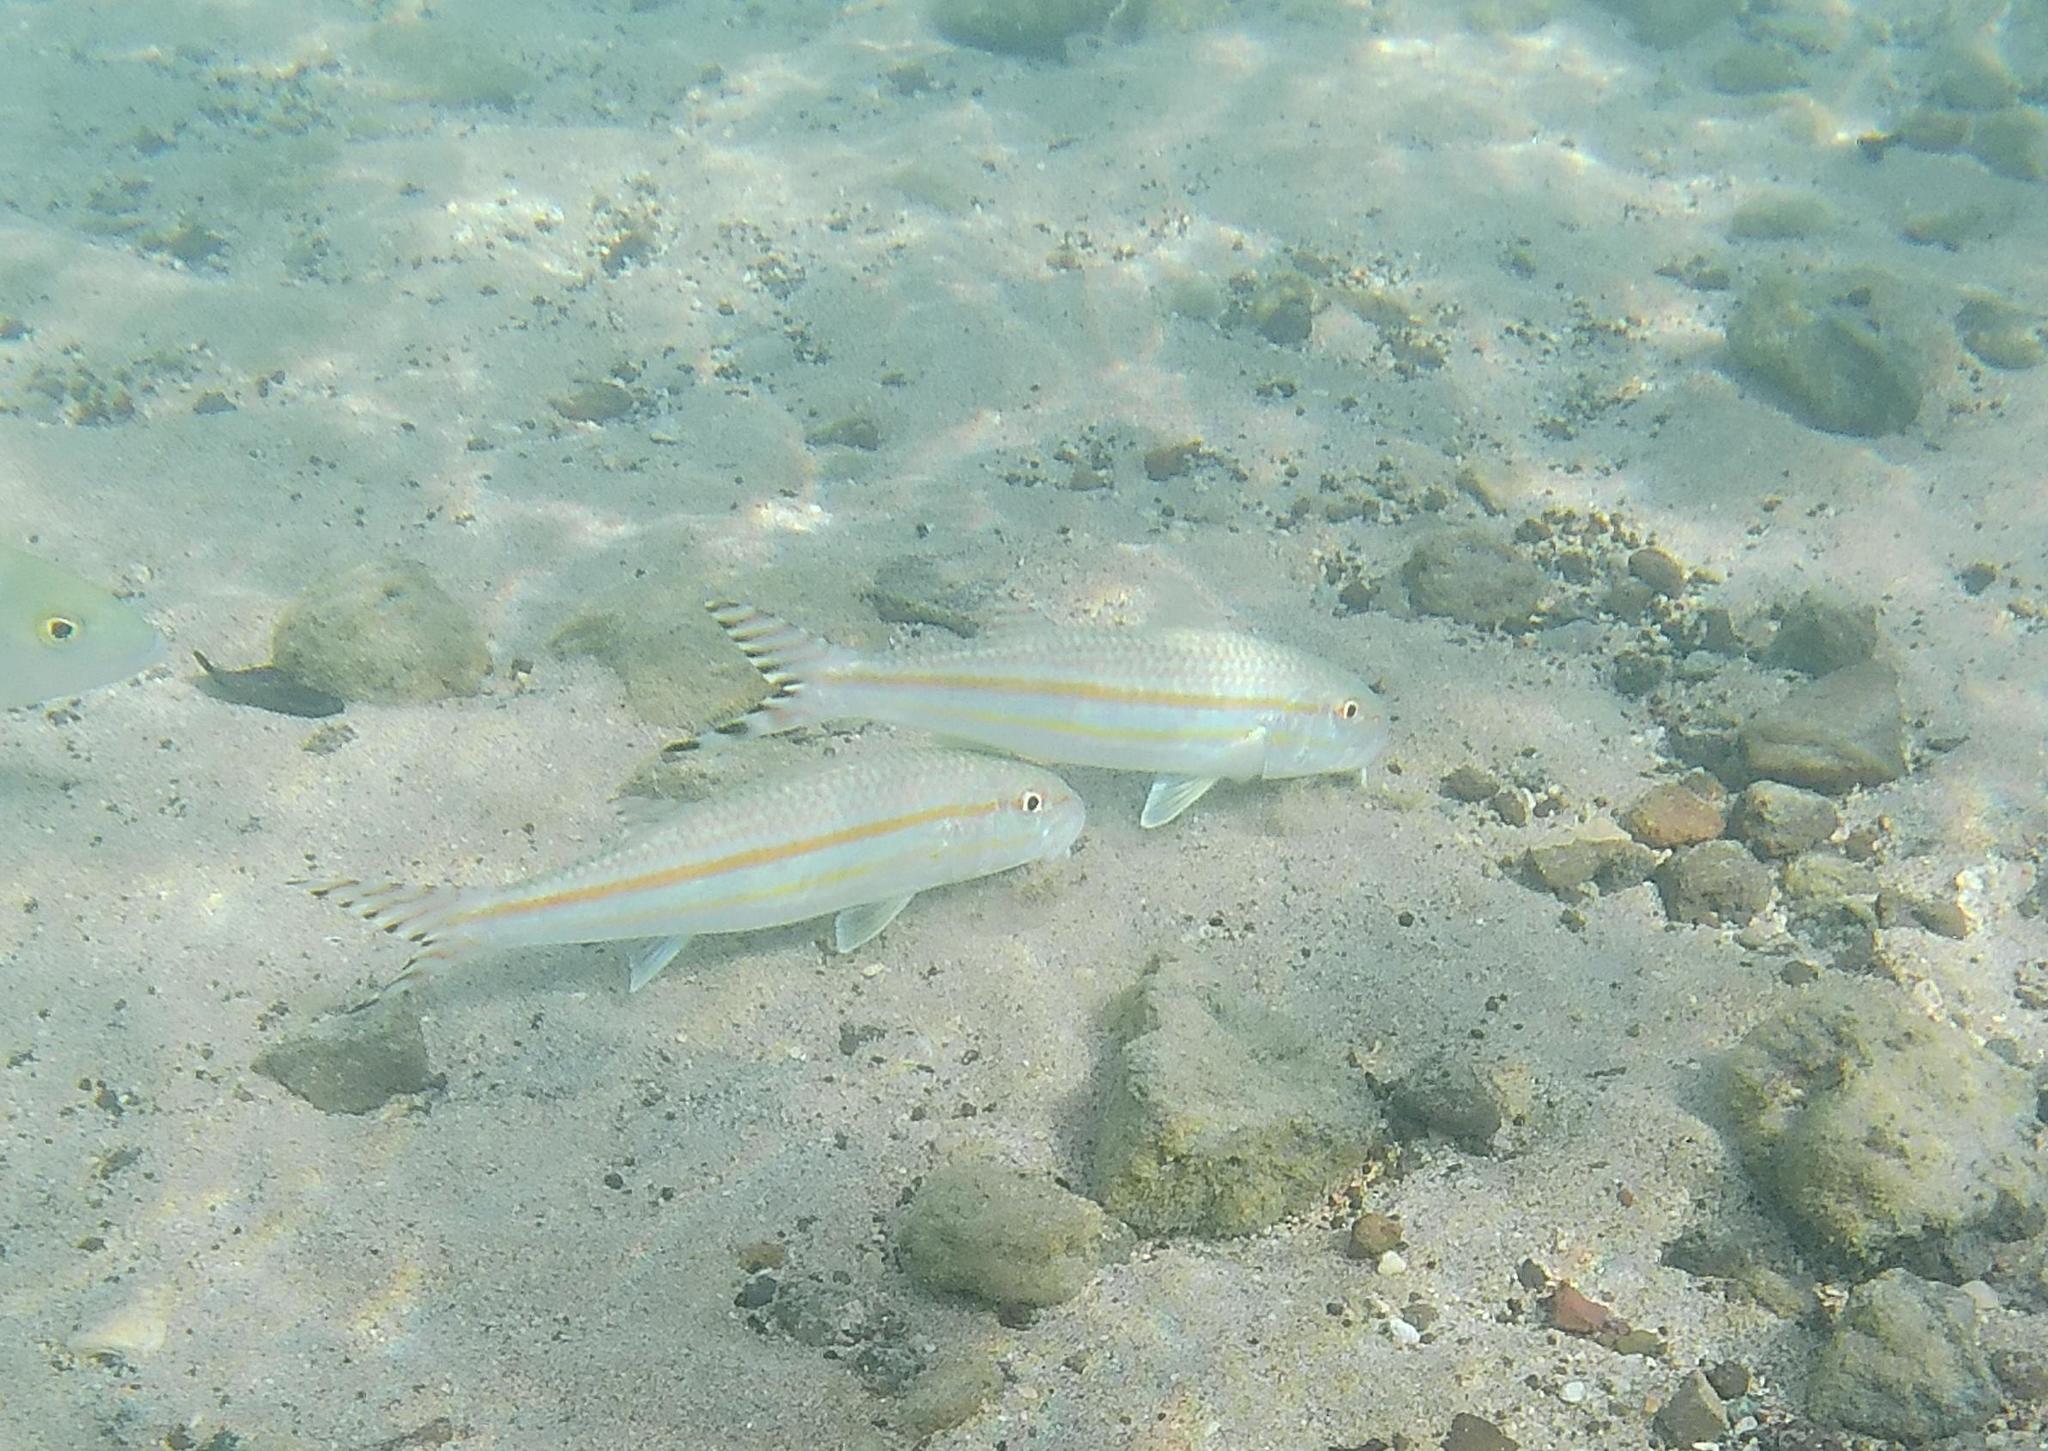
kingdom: Animalia
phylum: Chordata
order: Perciformes
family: Mullidae
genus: Upeneus
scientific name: Upeneus taeniopterus
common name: Band-tail goatfish
